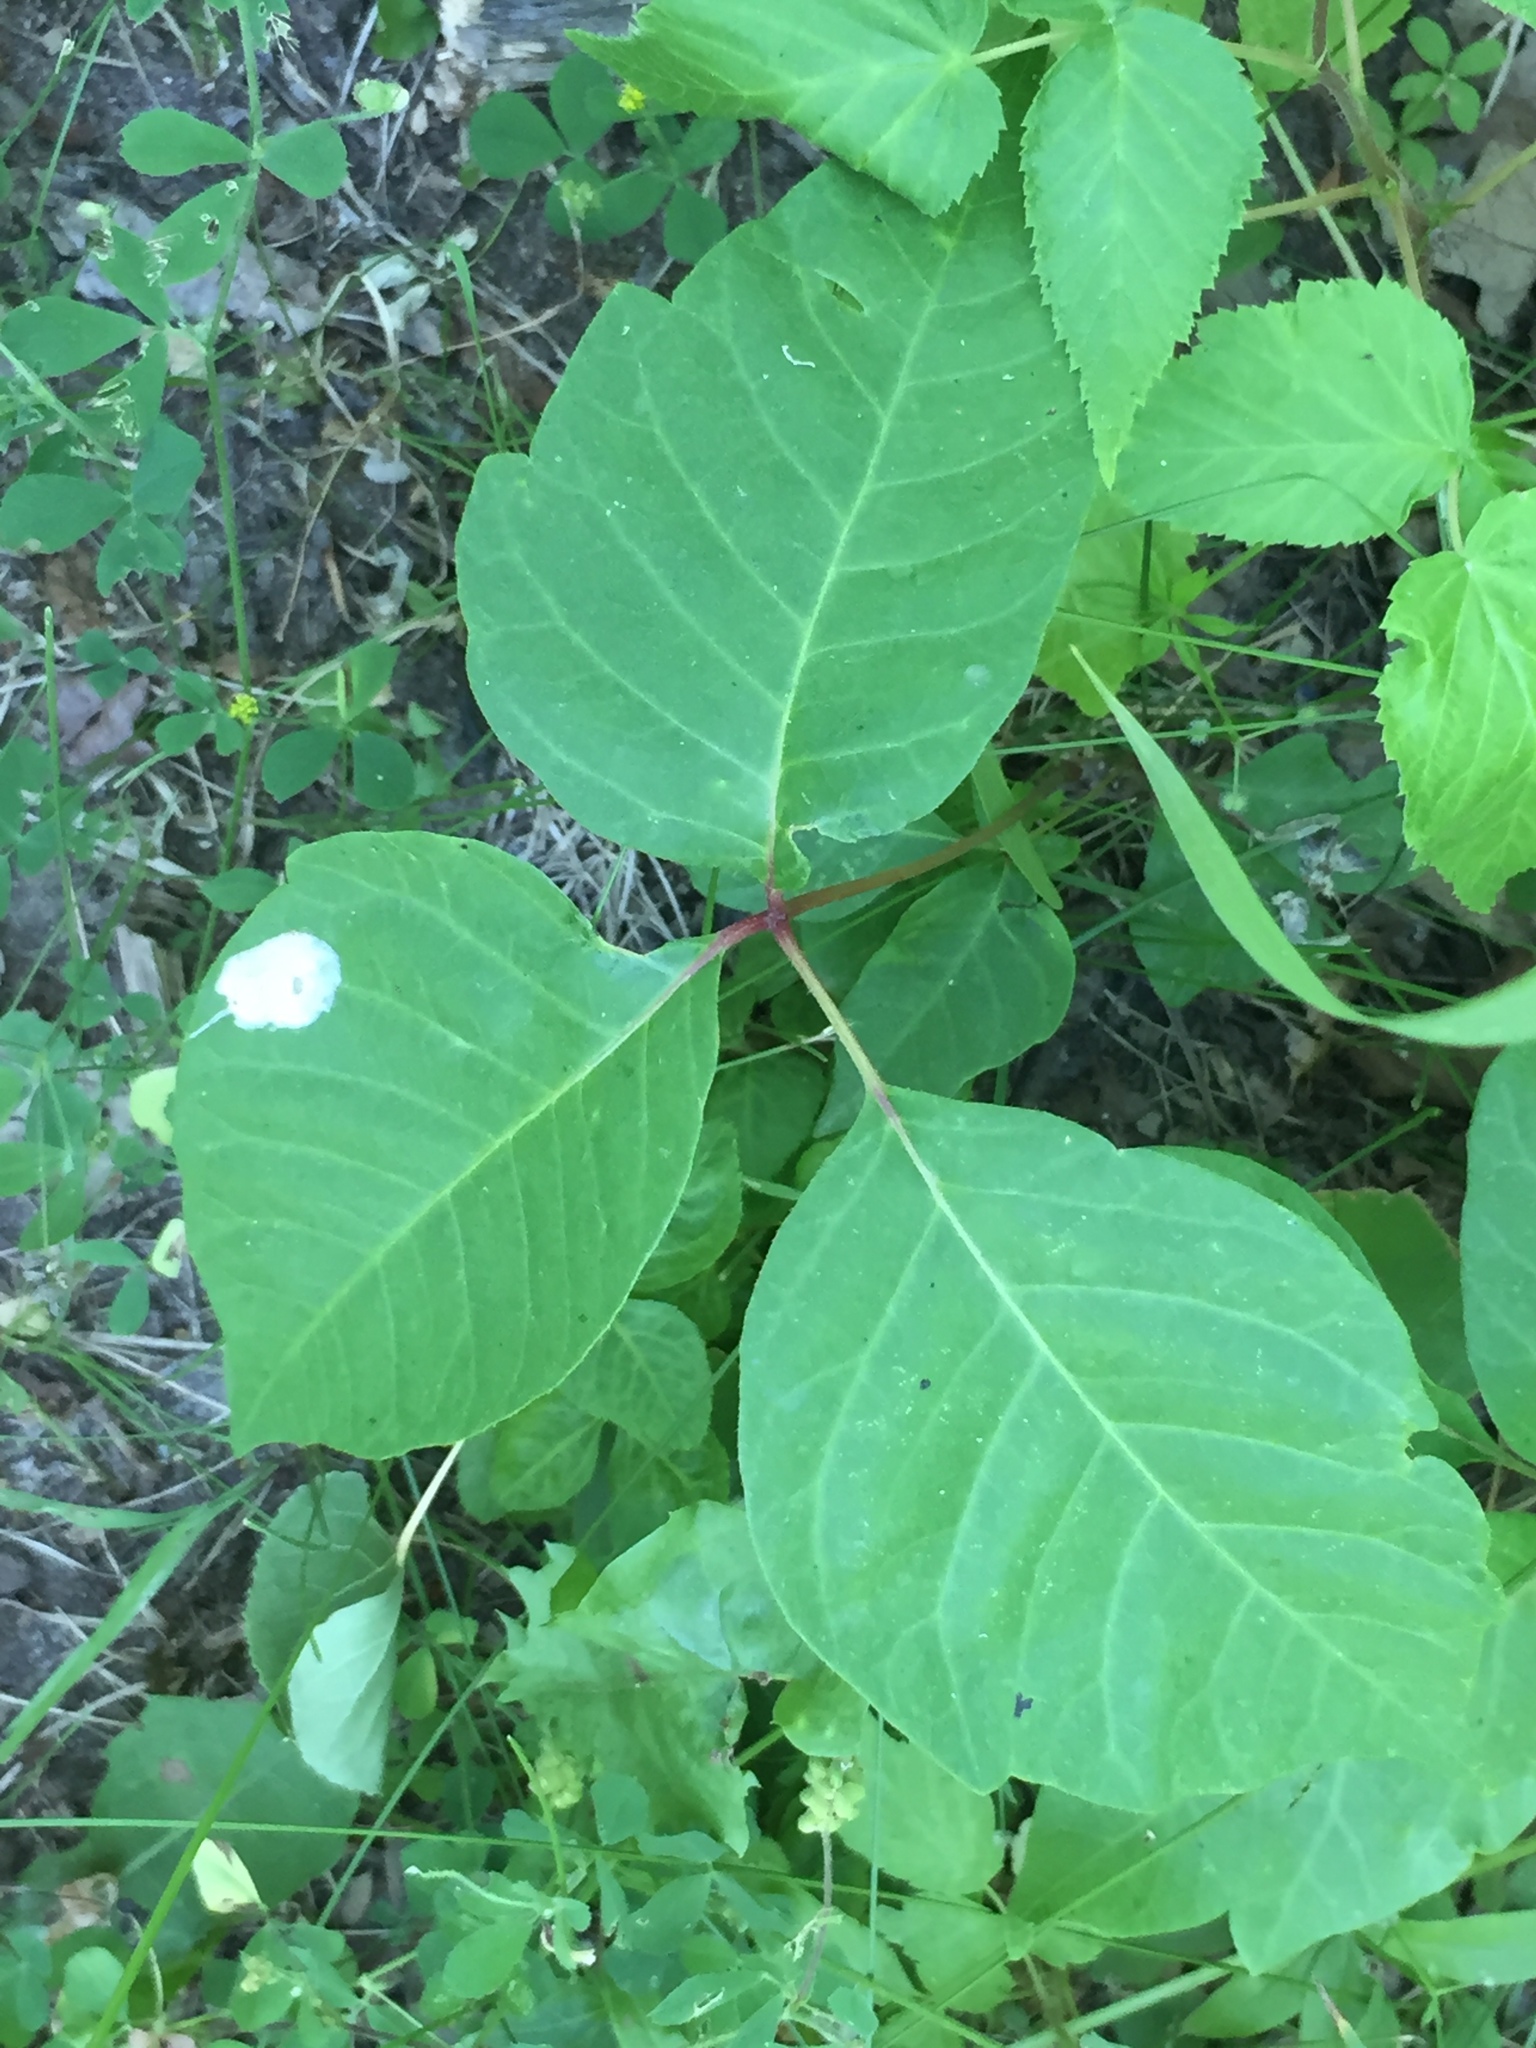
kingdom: Plantae
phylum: Tracheophyta
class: Magnoliopsida
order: Sapindales
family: Anacardiaceae
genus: Toxicodendron
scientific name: Toxicodendron rydbergii
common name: Rydberg's poison-ivy
